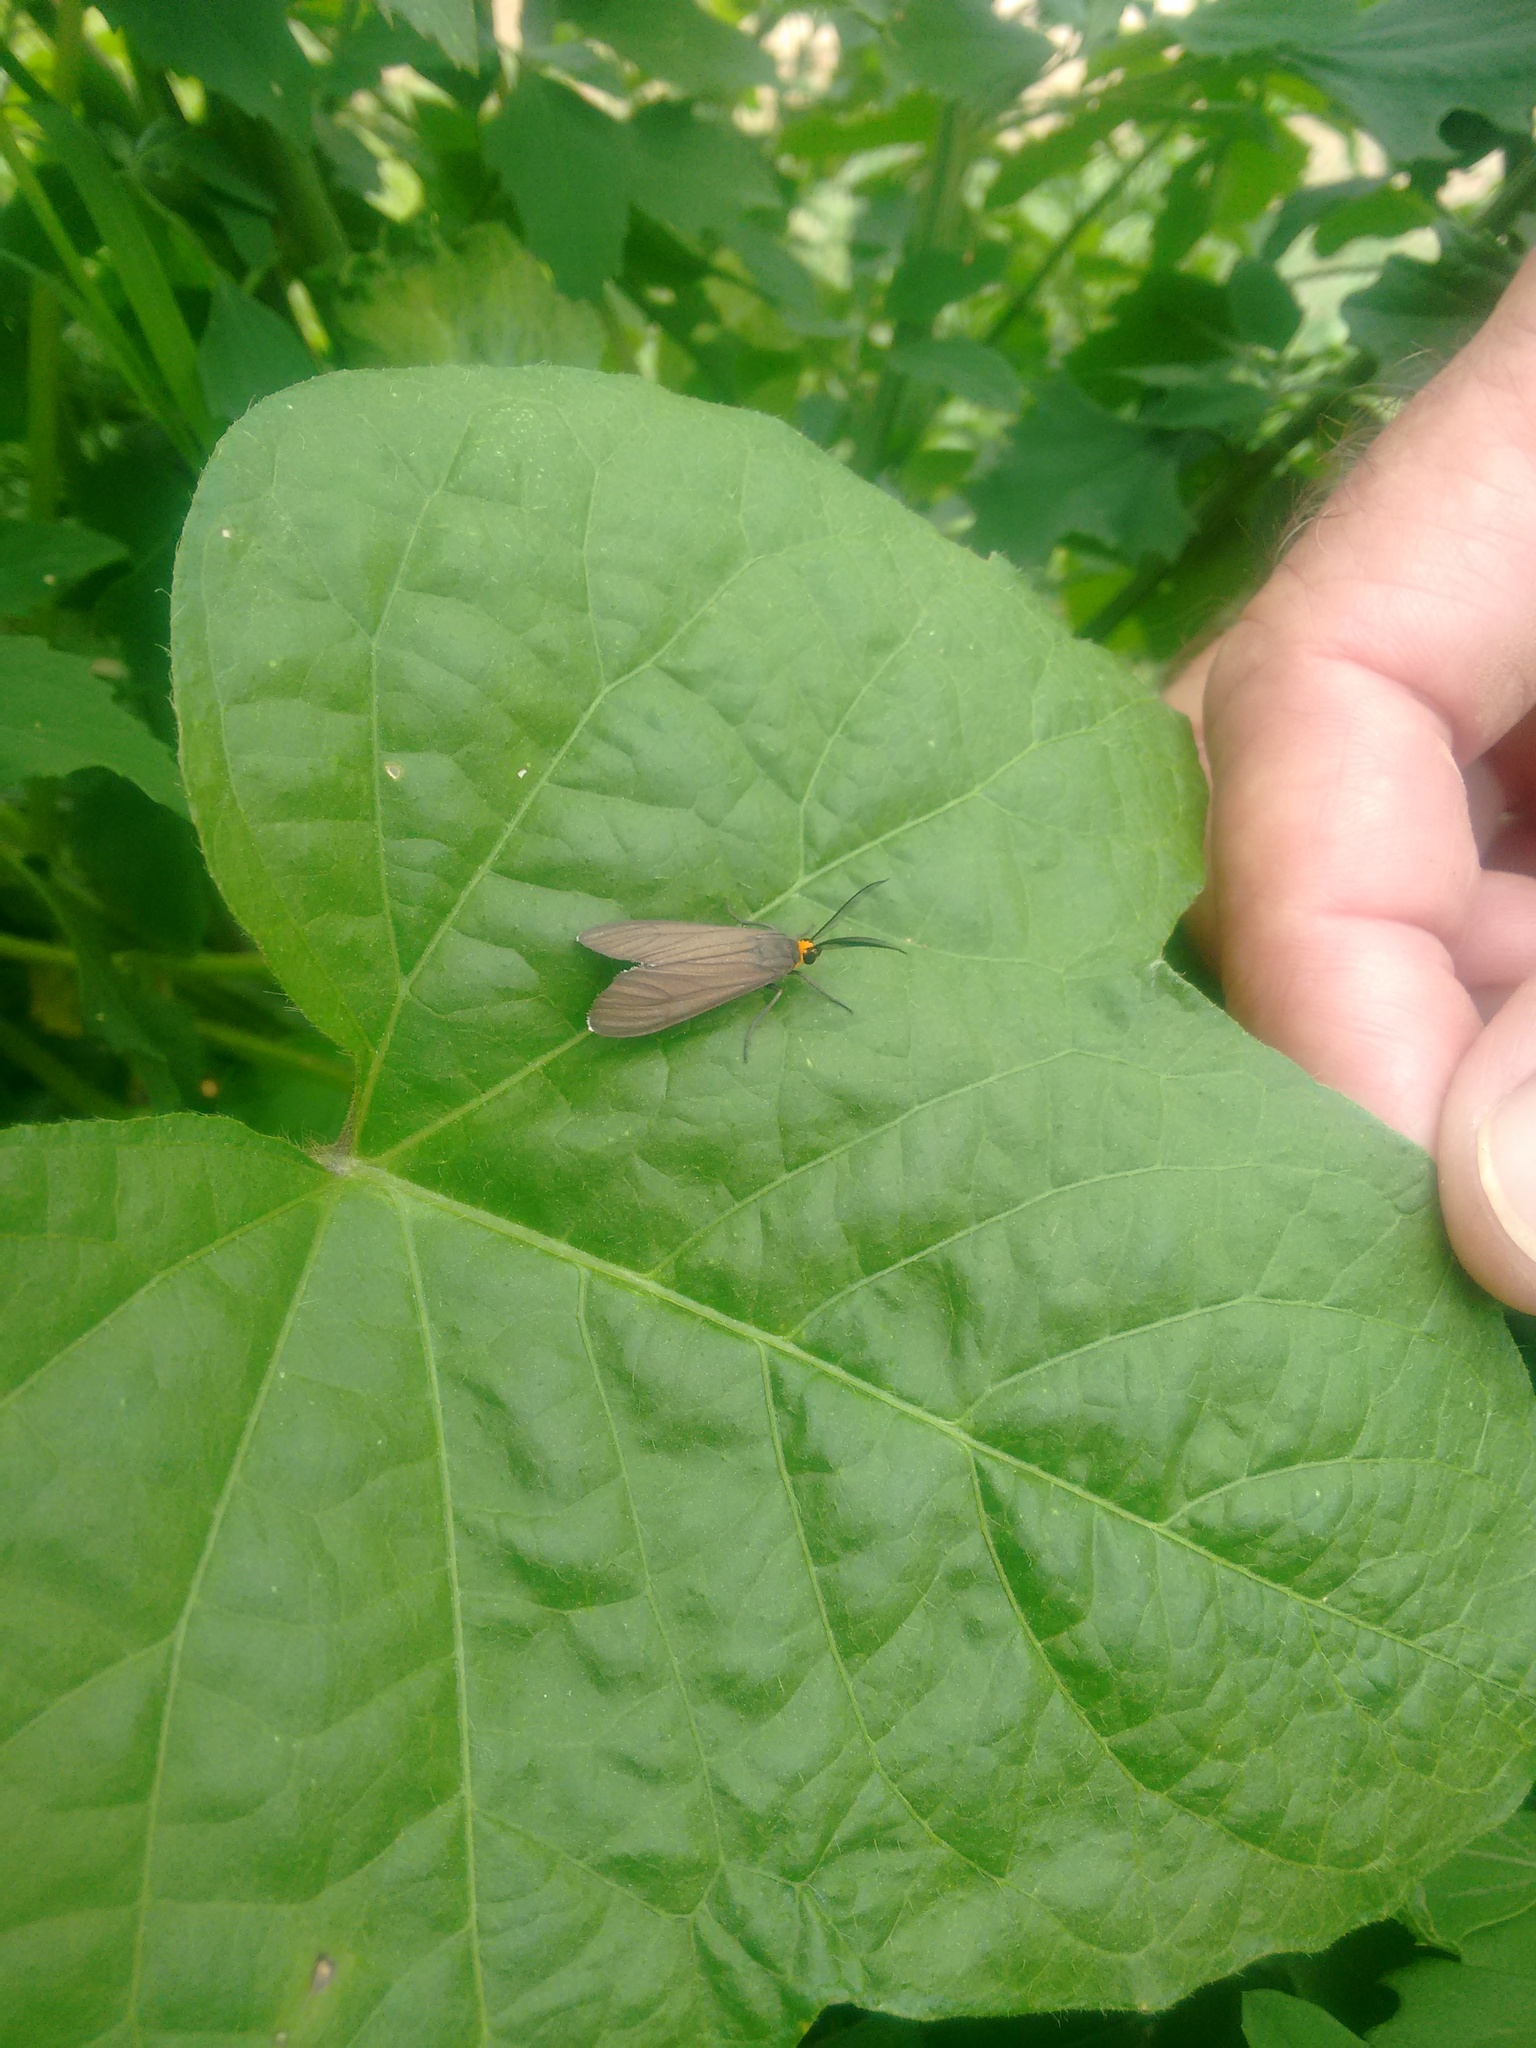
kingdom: Animalia
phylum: Arthropoda
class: Insecta
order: Lepidoptera
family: Erebidae
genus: Ctenucha
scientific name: Ctenucha rubriceps
